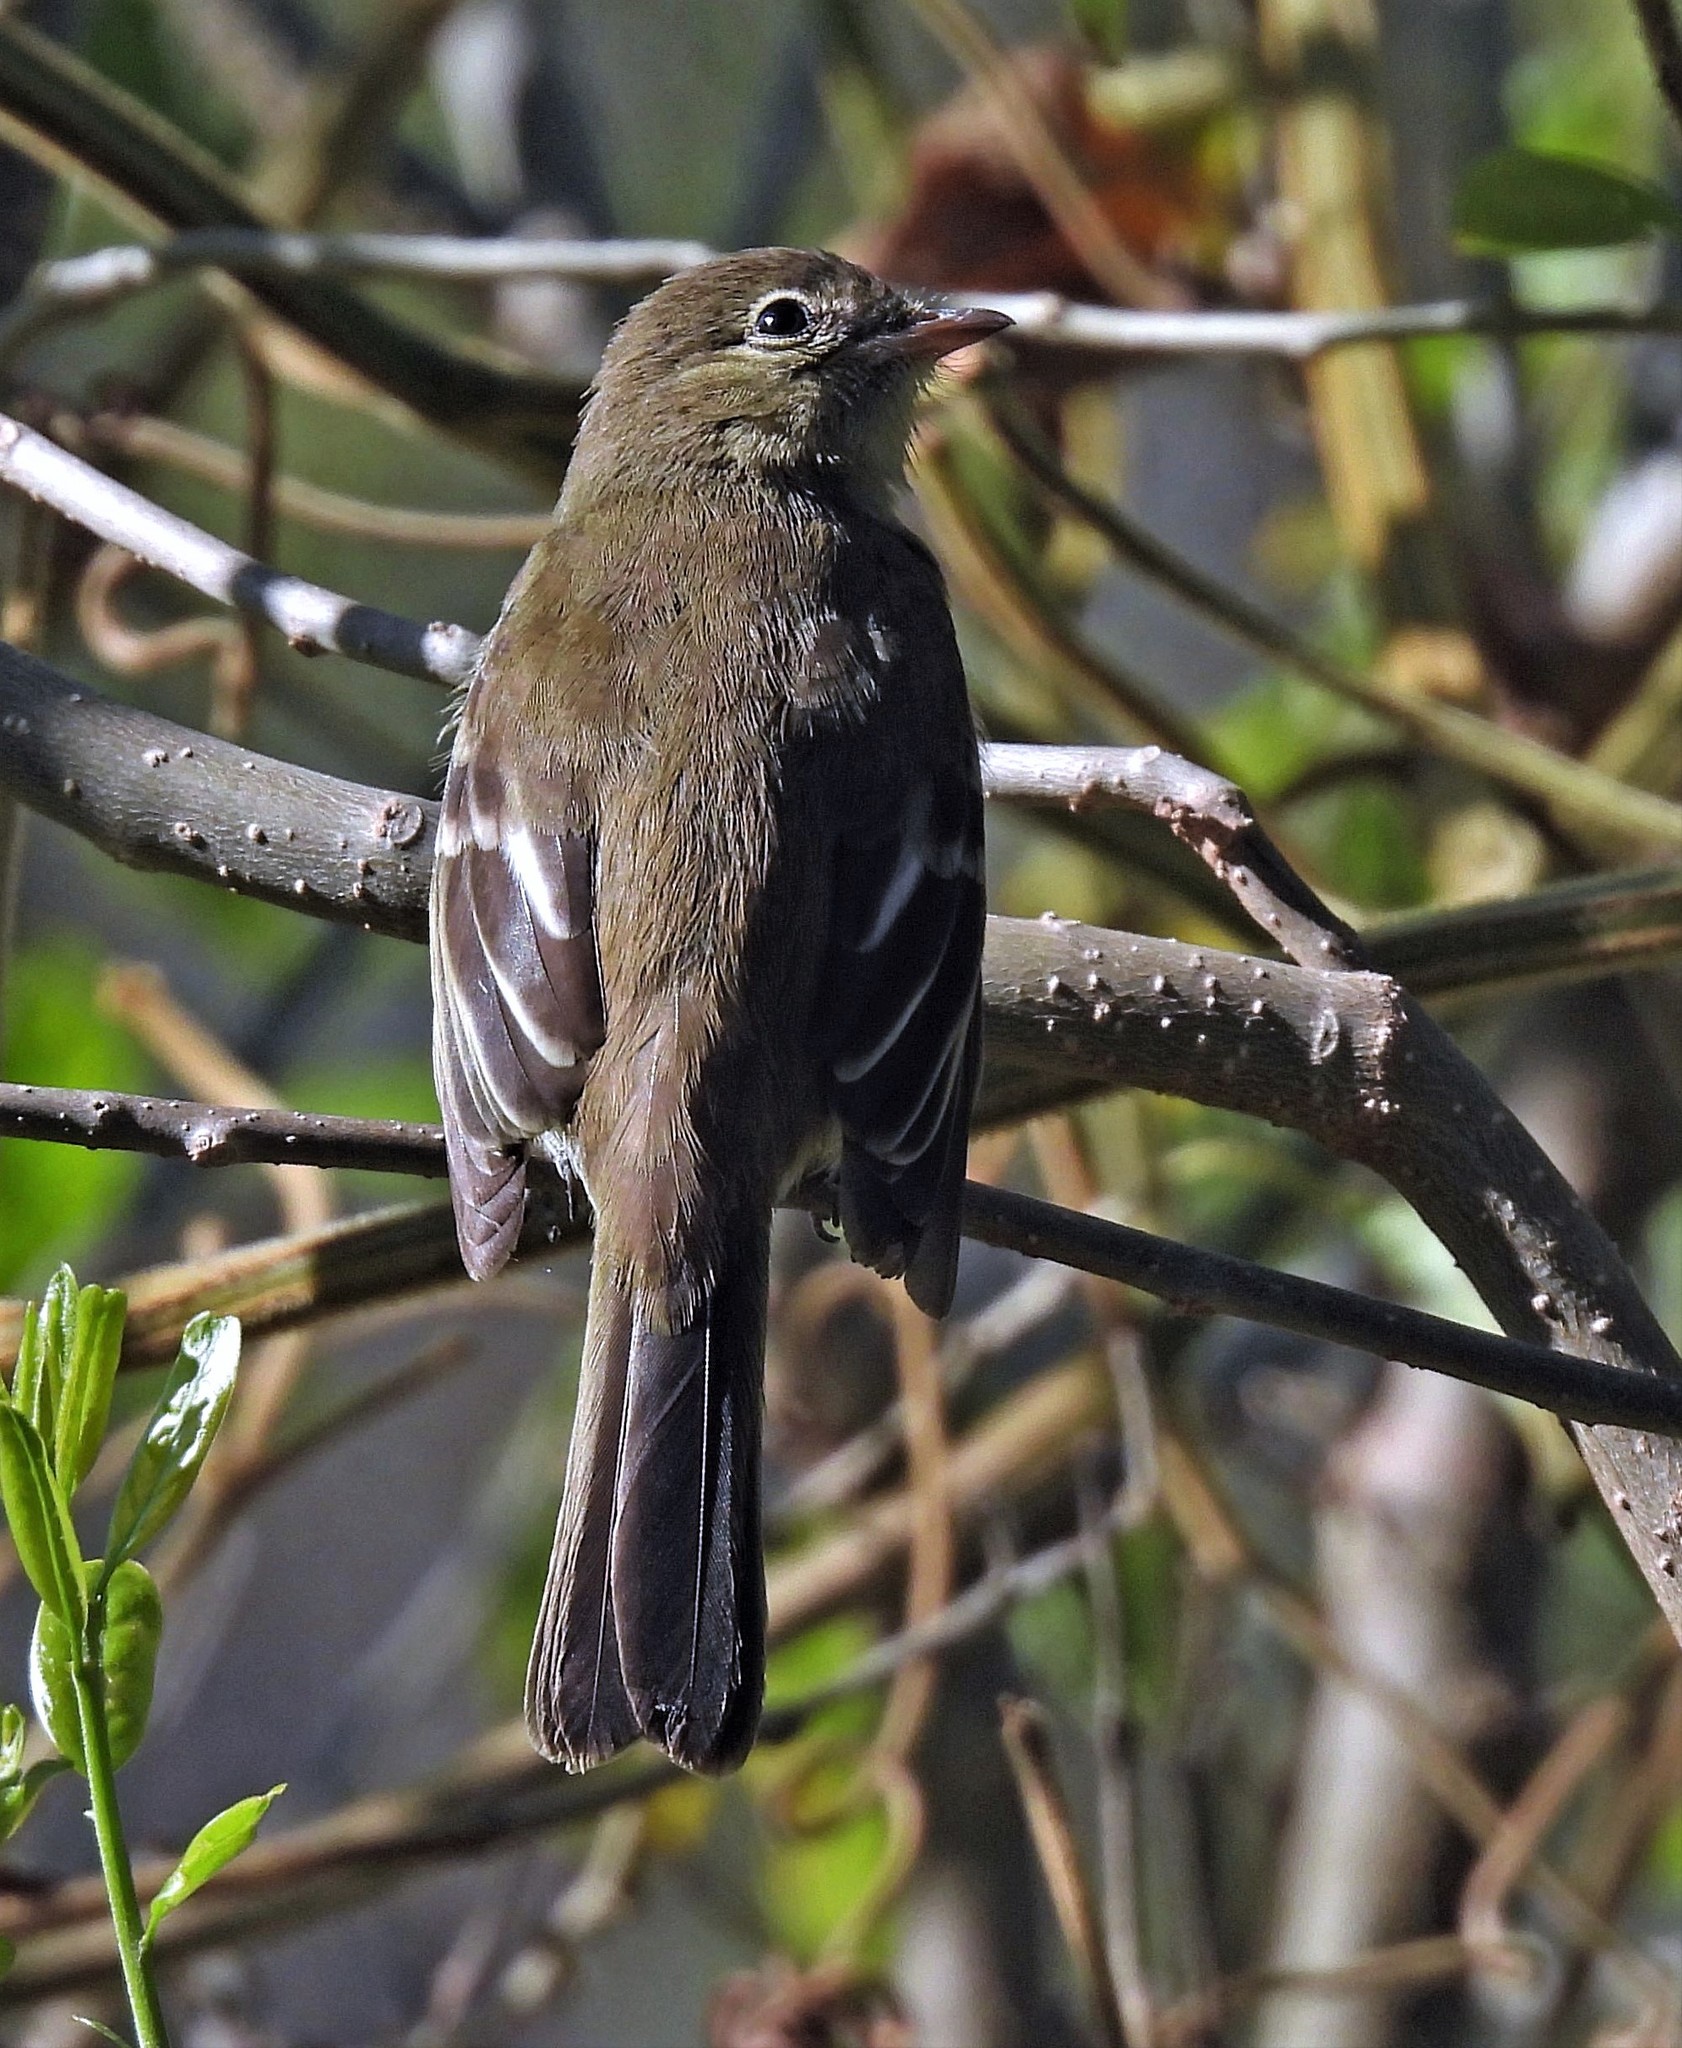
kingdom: Animalia
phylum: Chordata
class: Aves
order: Passeriformes
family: Tyrannidae
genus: Elaenia
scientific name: Elaenia obscura
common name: Highland elaenia
